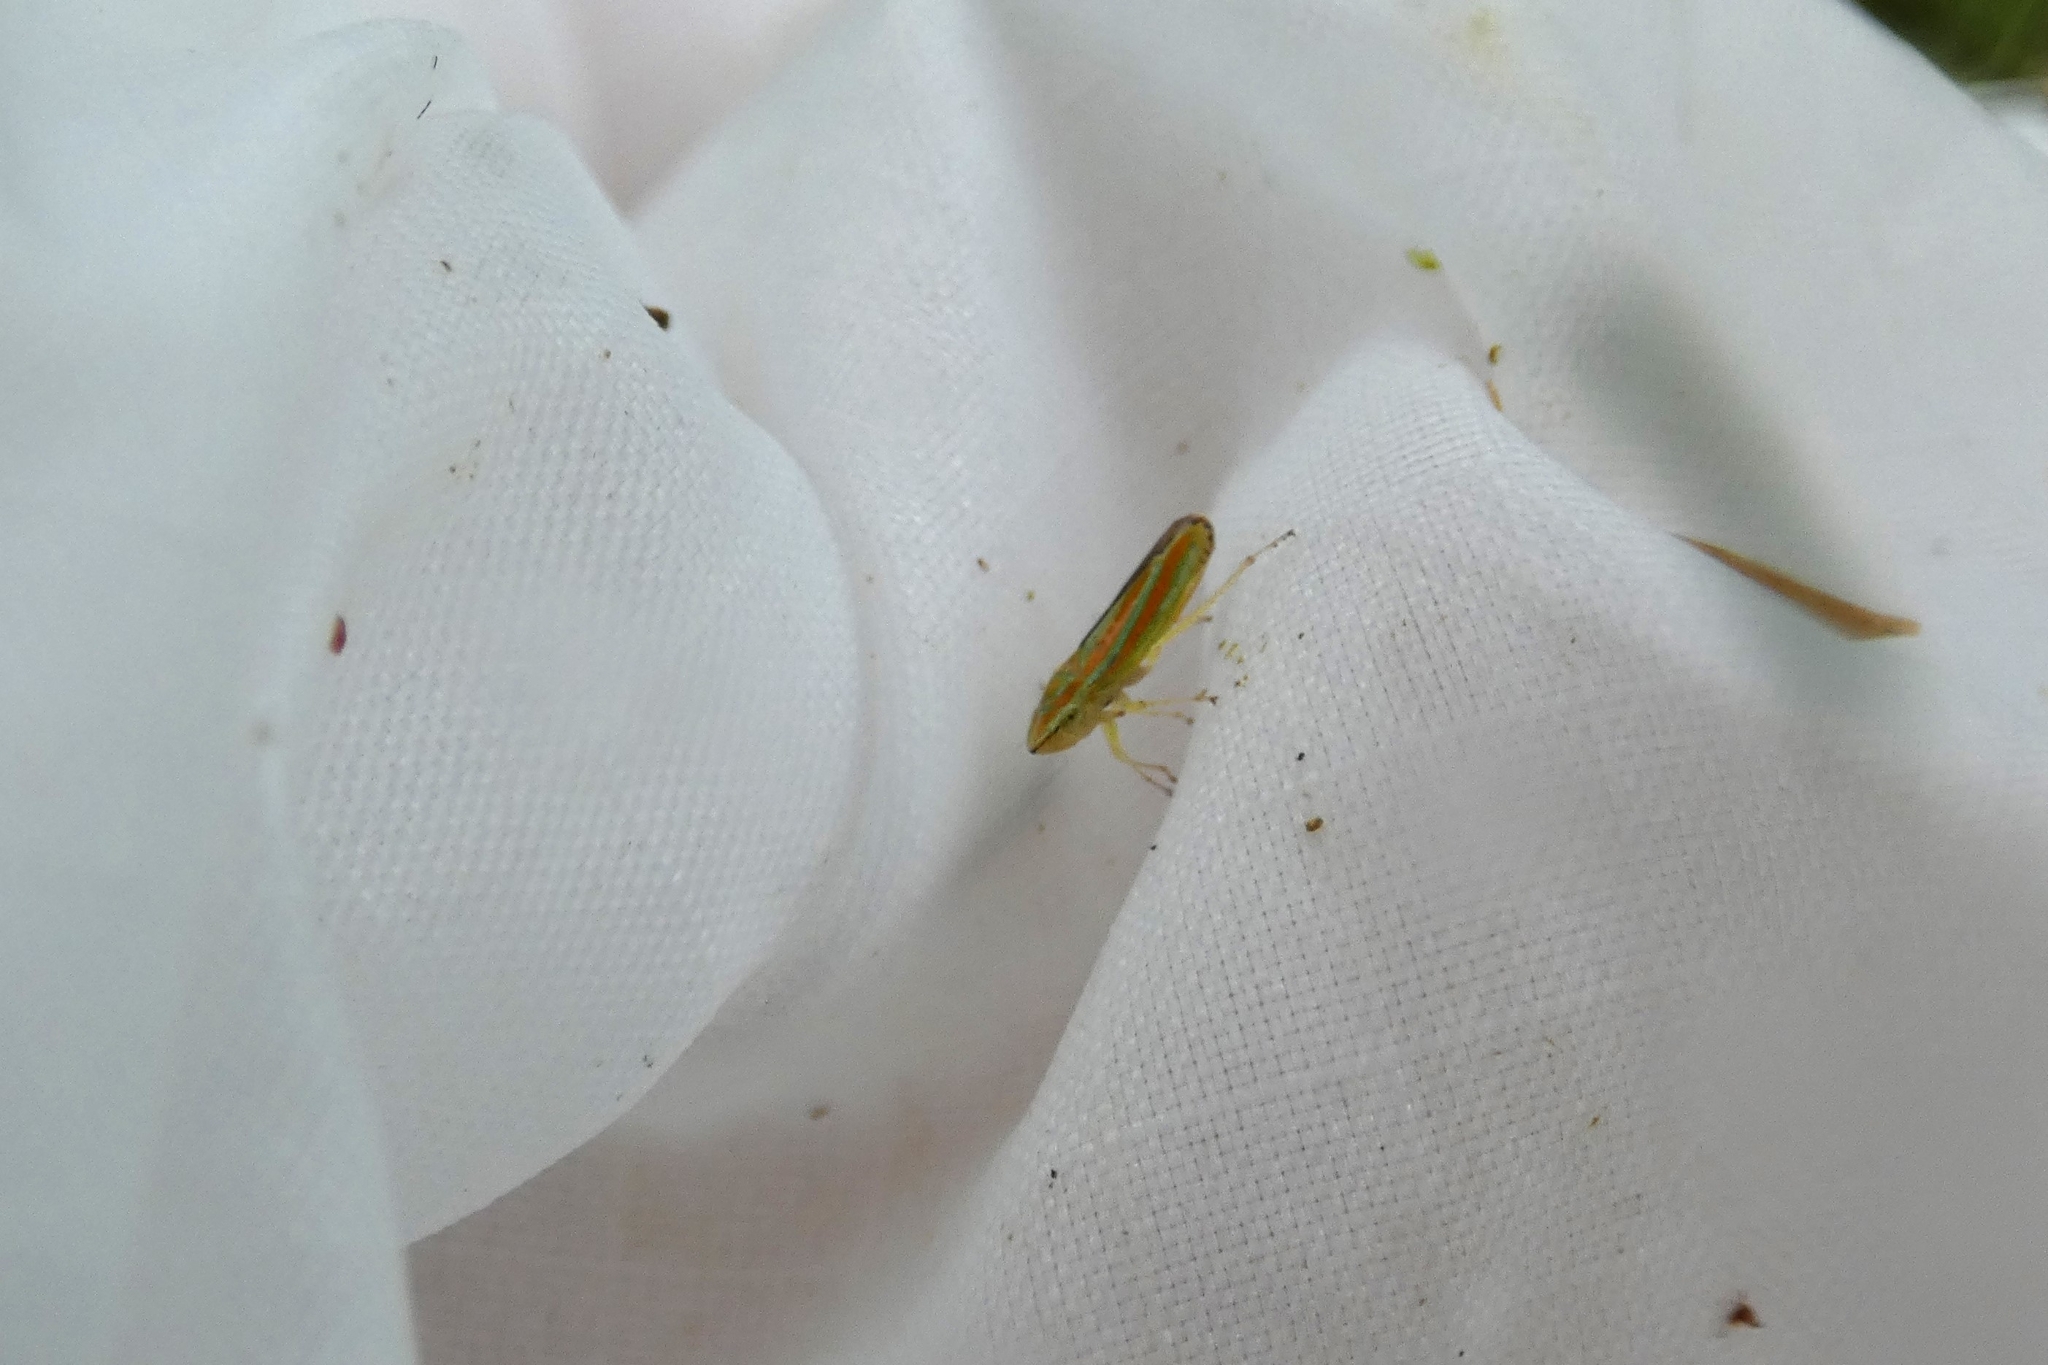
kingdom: Animalia
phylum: Arthropoda
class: Insecta
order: Hemiptera
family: Cicadellidae
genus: Graphocephala
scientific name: Graphocephala versuta
